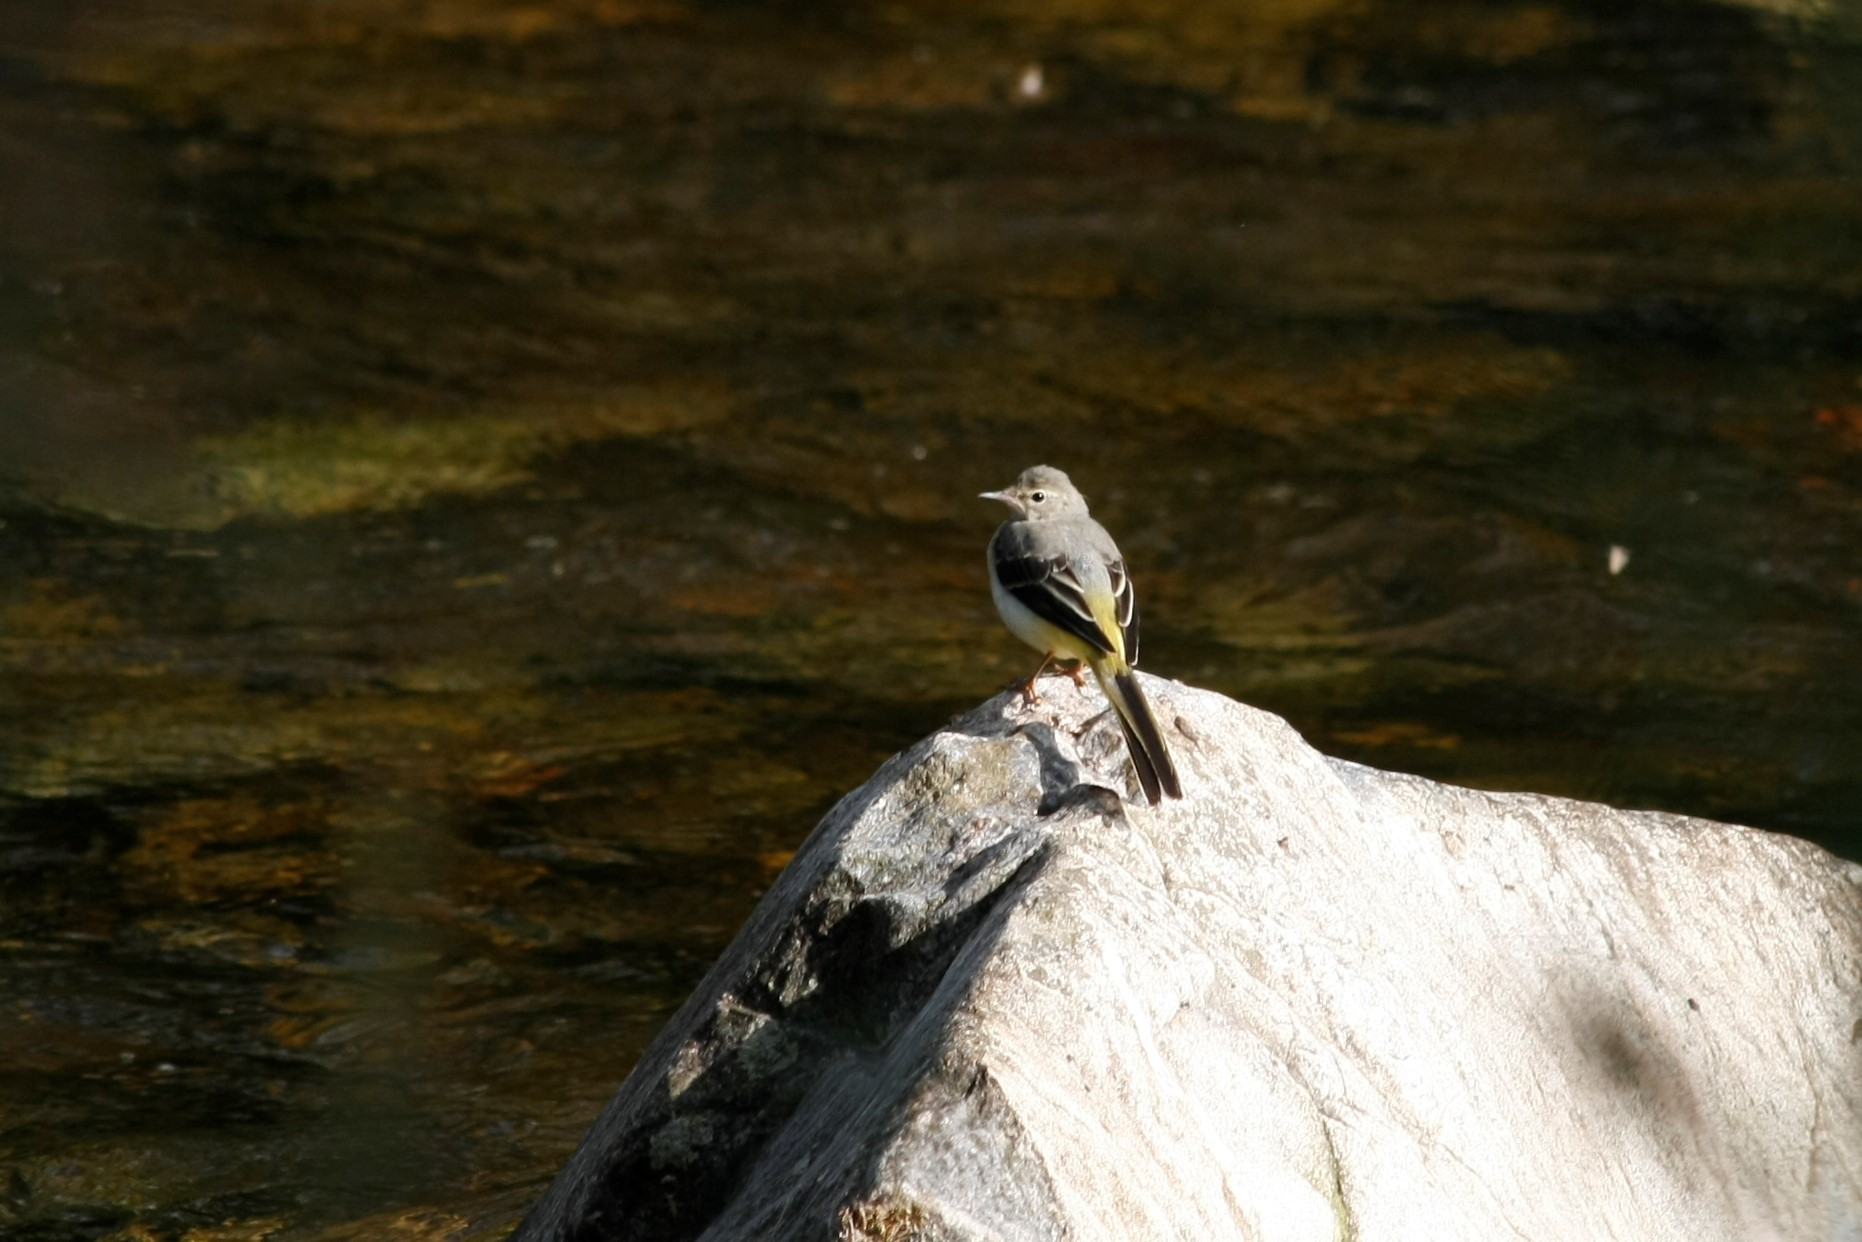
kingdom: Animalia
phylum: Chordata
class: Aves
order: Passeriformes
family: Motacillidae
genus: Motacilla
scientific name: Motacilla cinerea
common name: Grey wagtail
